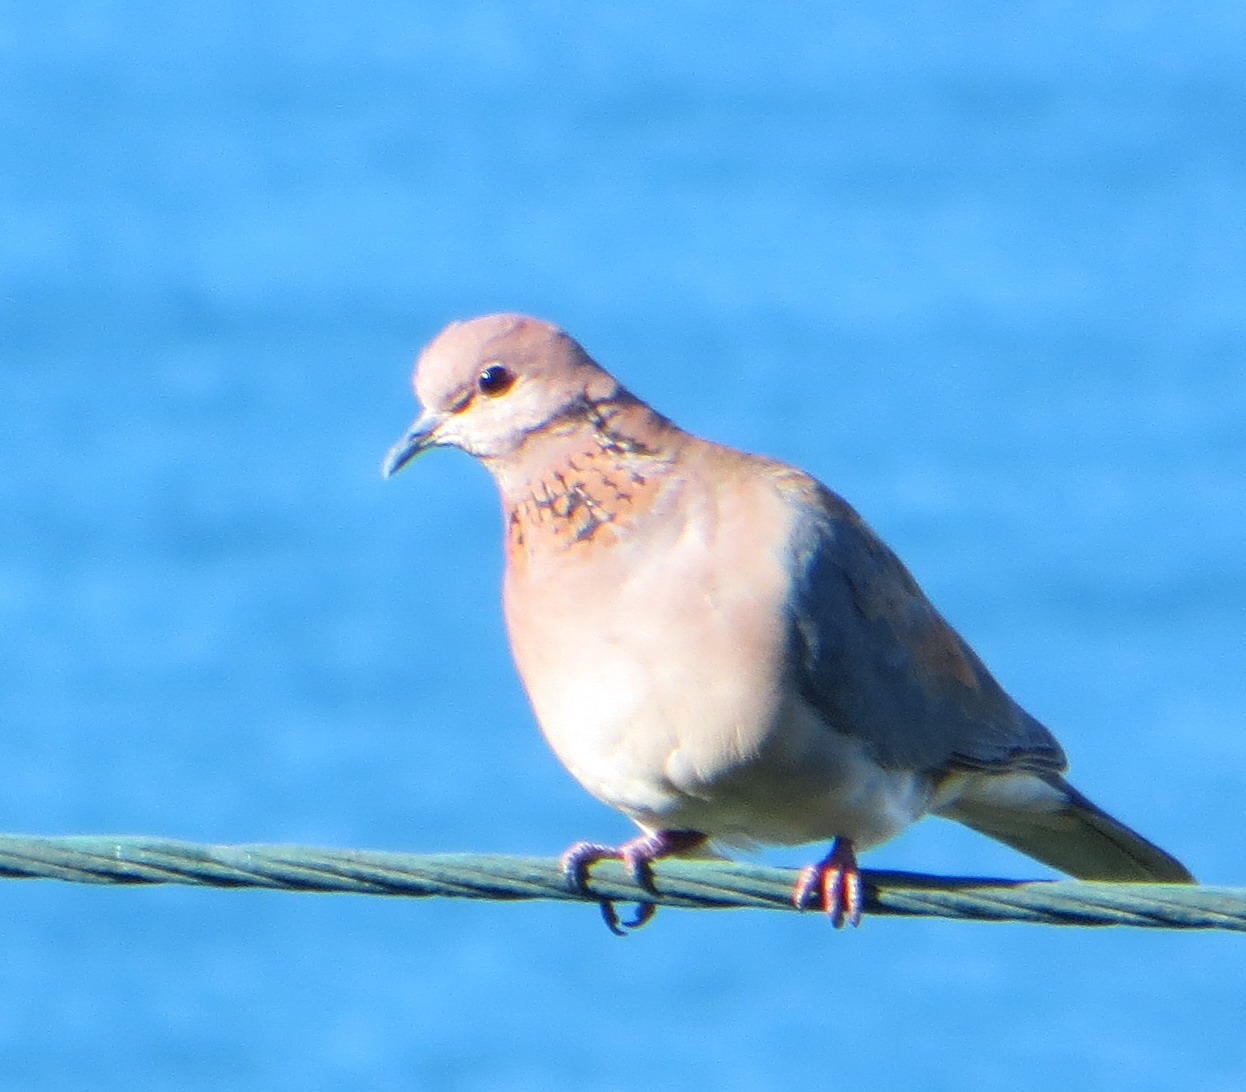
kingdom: Animalia
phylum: Chordata
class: Aves
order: Columbiformes
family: Columbidae
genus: Spilopelia
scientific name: Spilopelia senegalensis
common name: Laughing dove
